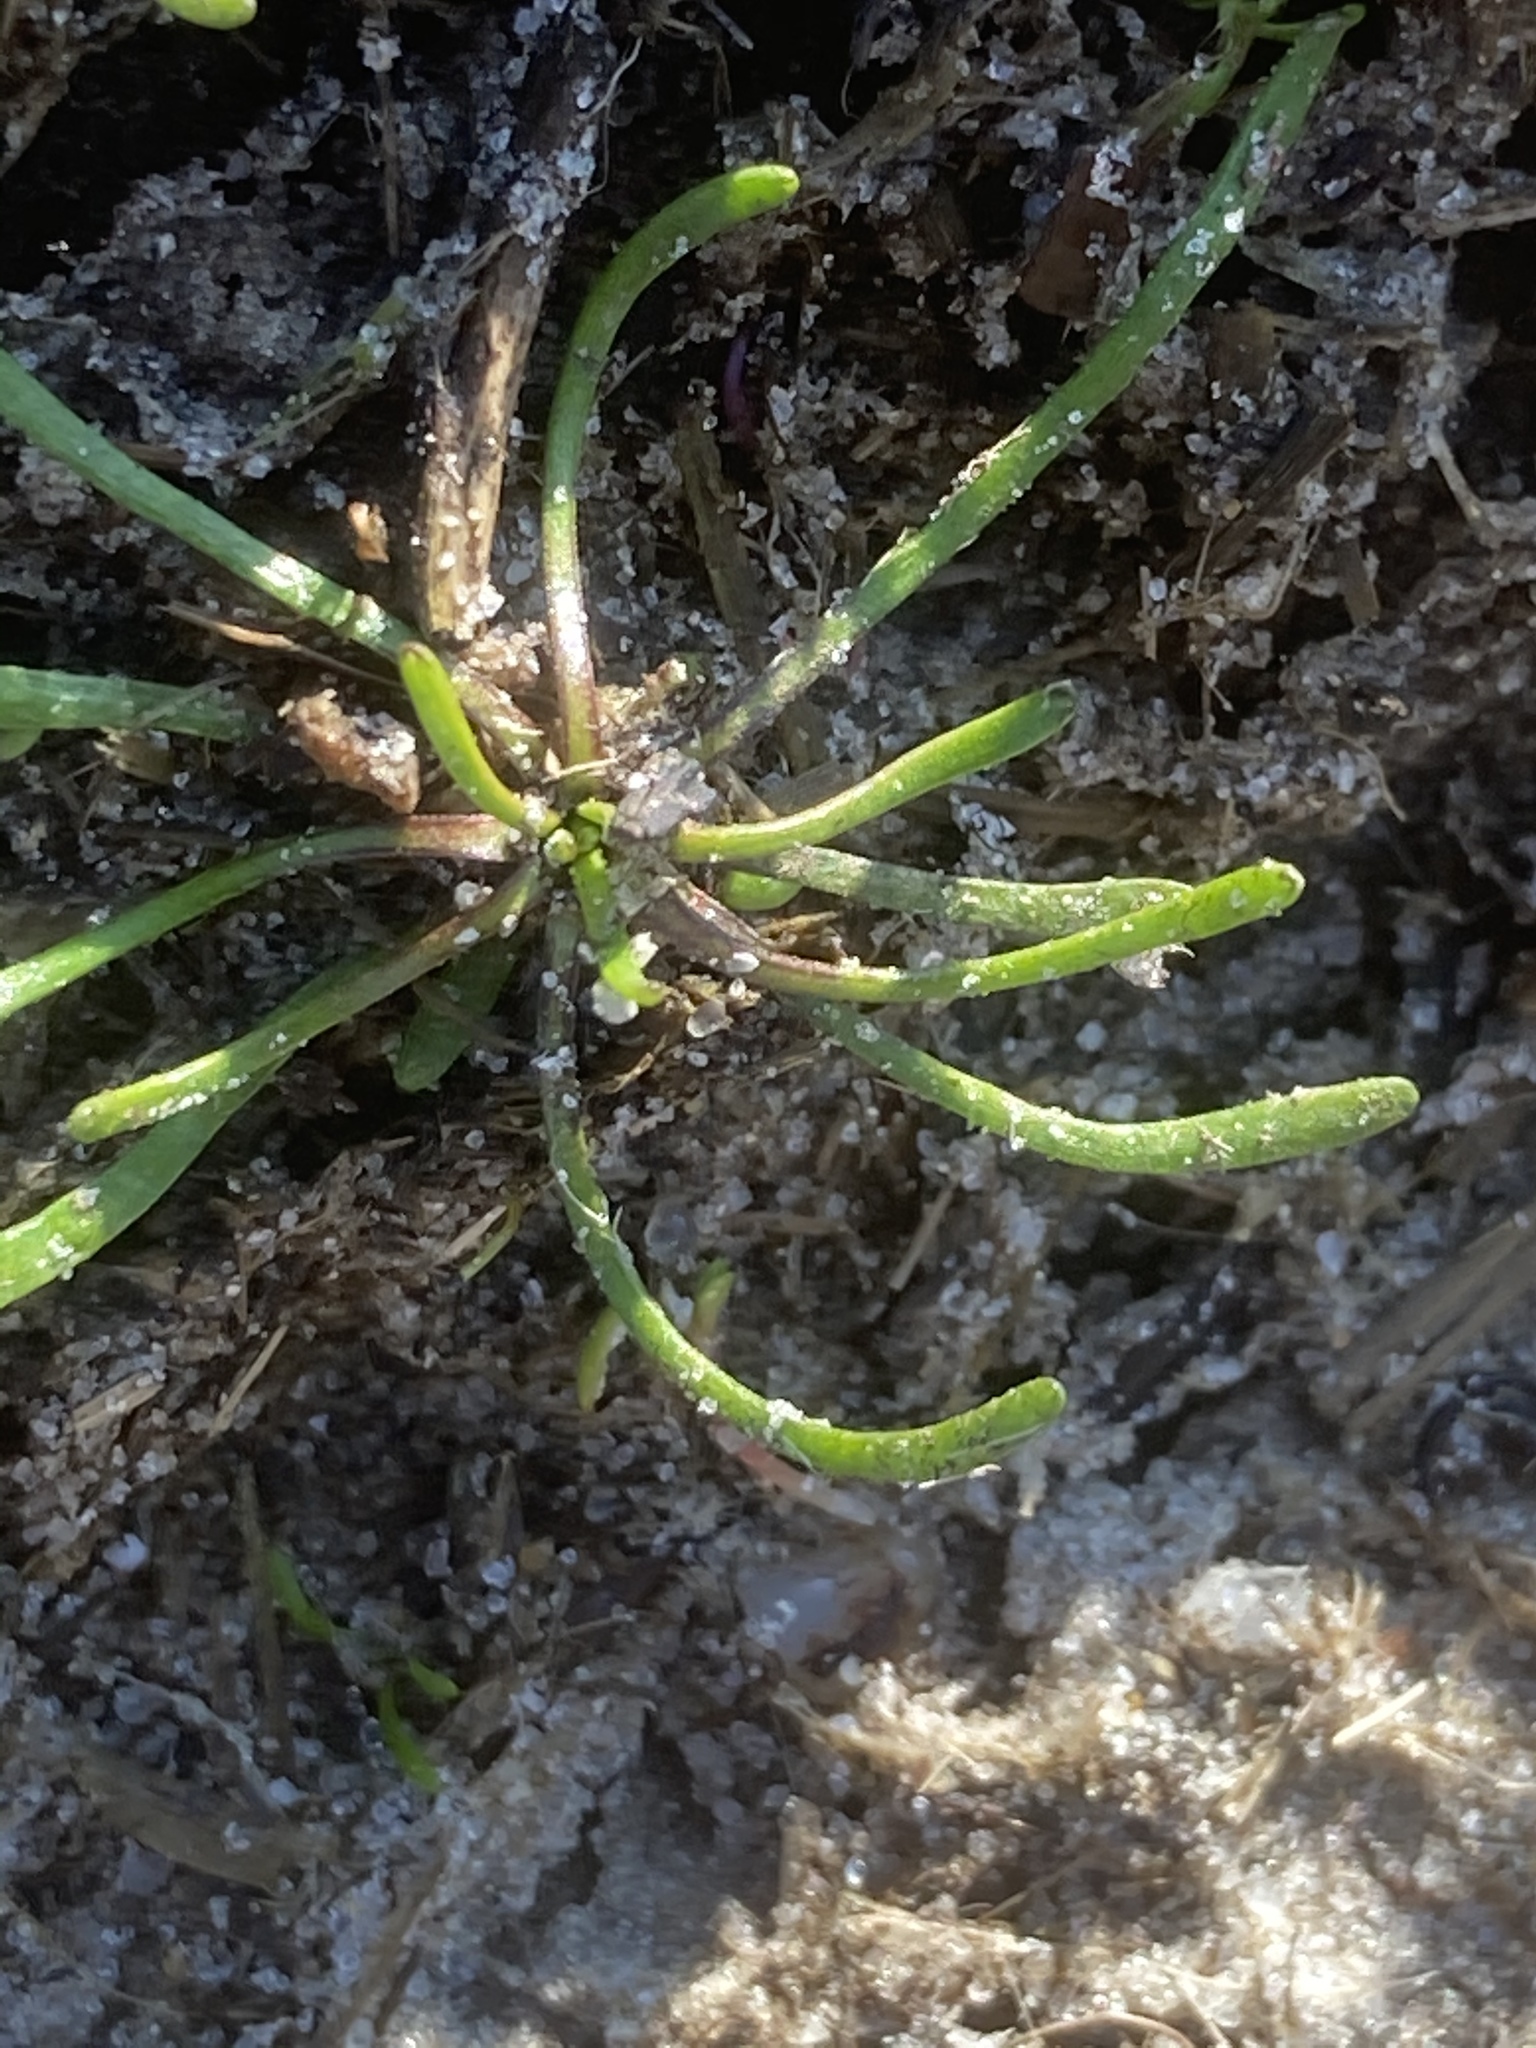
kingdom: Plantae
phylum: Tracheophyta
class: Magnoliopsida
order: Ranunculales
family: Ranunculaceae
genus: Myosurus
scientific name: Myosurus minimus
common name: Mousetail
